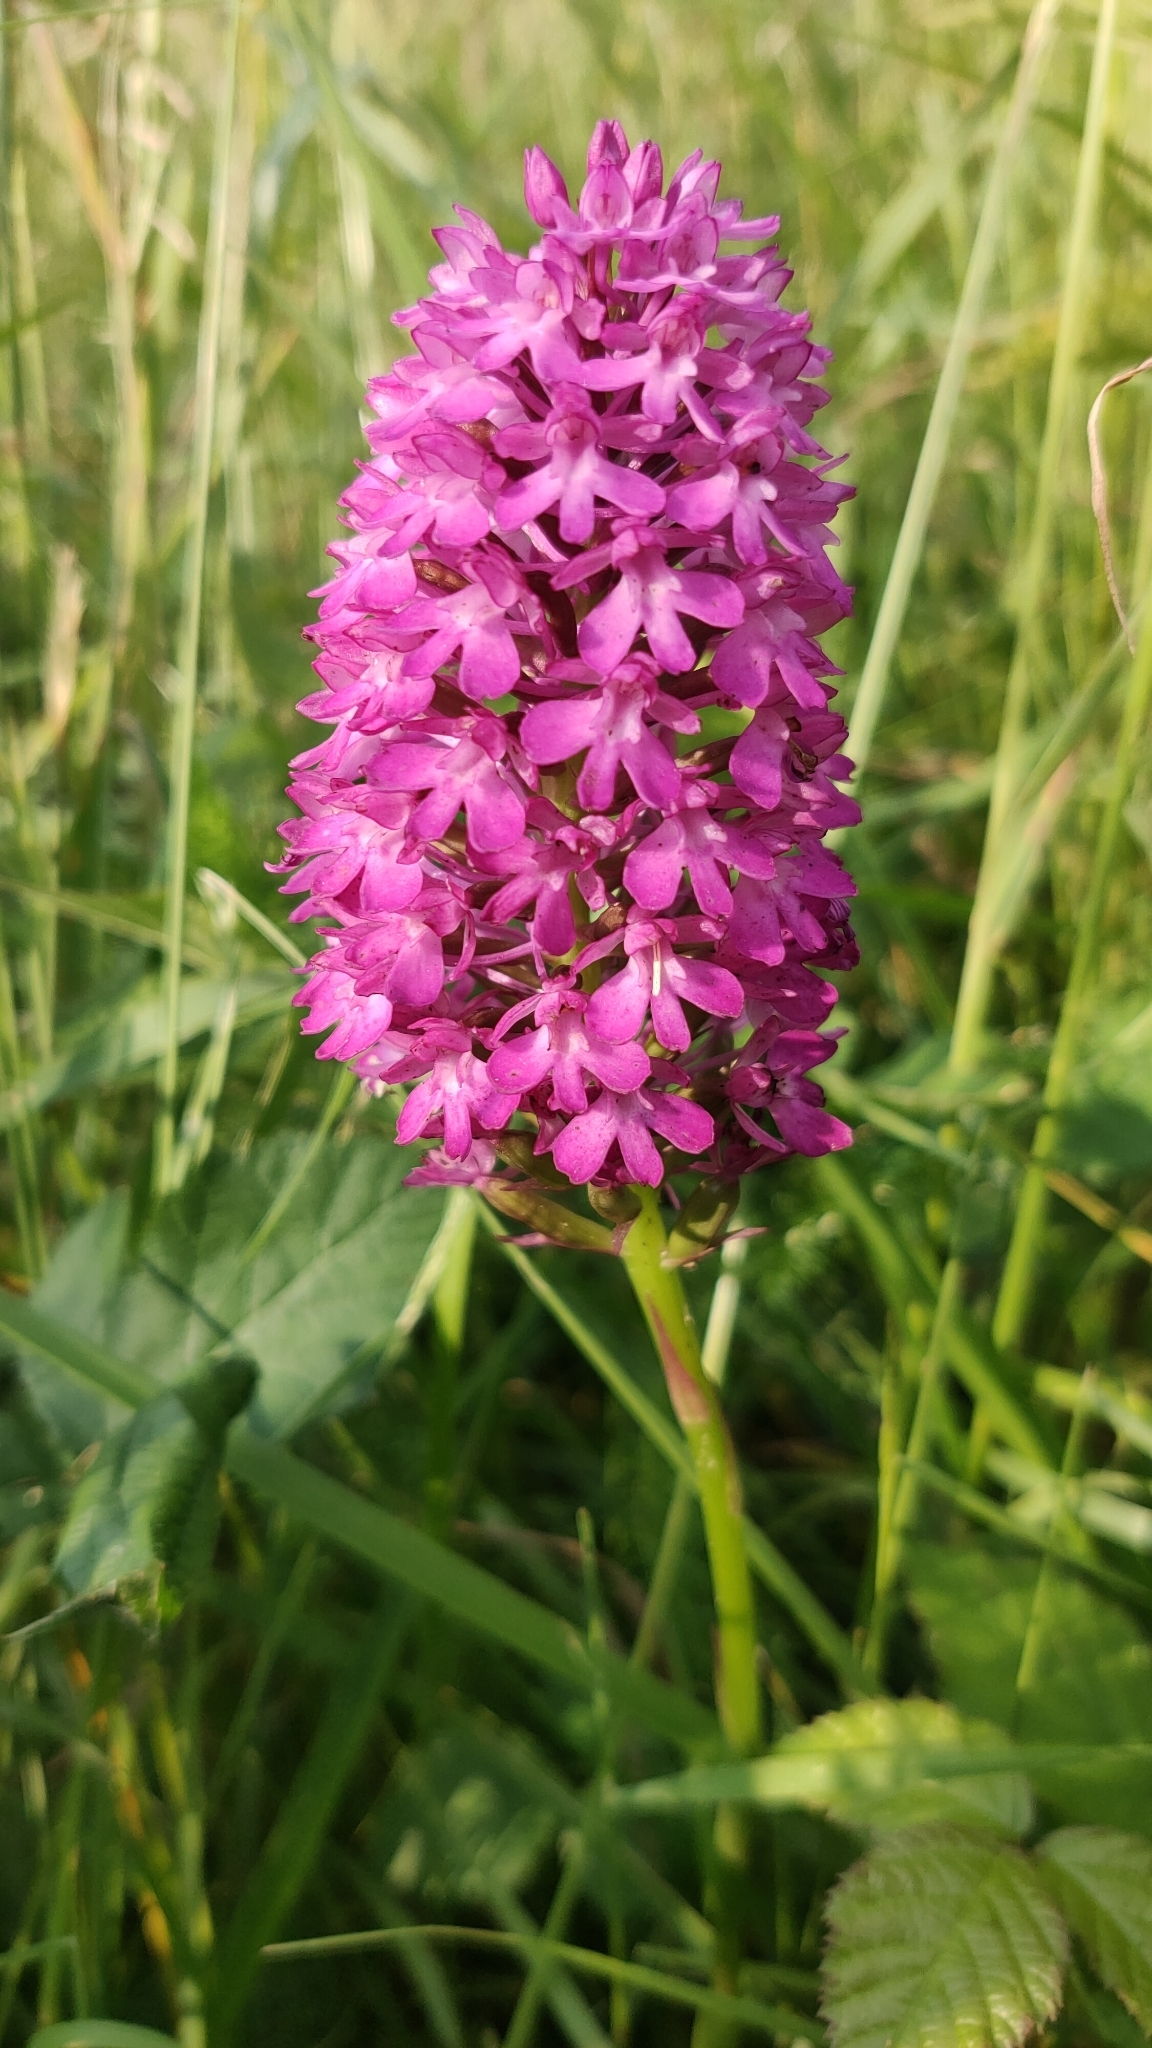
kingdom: Plantae
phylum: Tracheophyta
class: Liliopsida
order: Asparagales
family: Orchidaceae
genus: Anacamptis
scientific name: Anacamptis pyramidalis
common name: Pyramidal orchid
